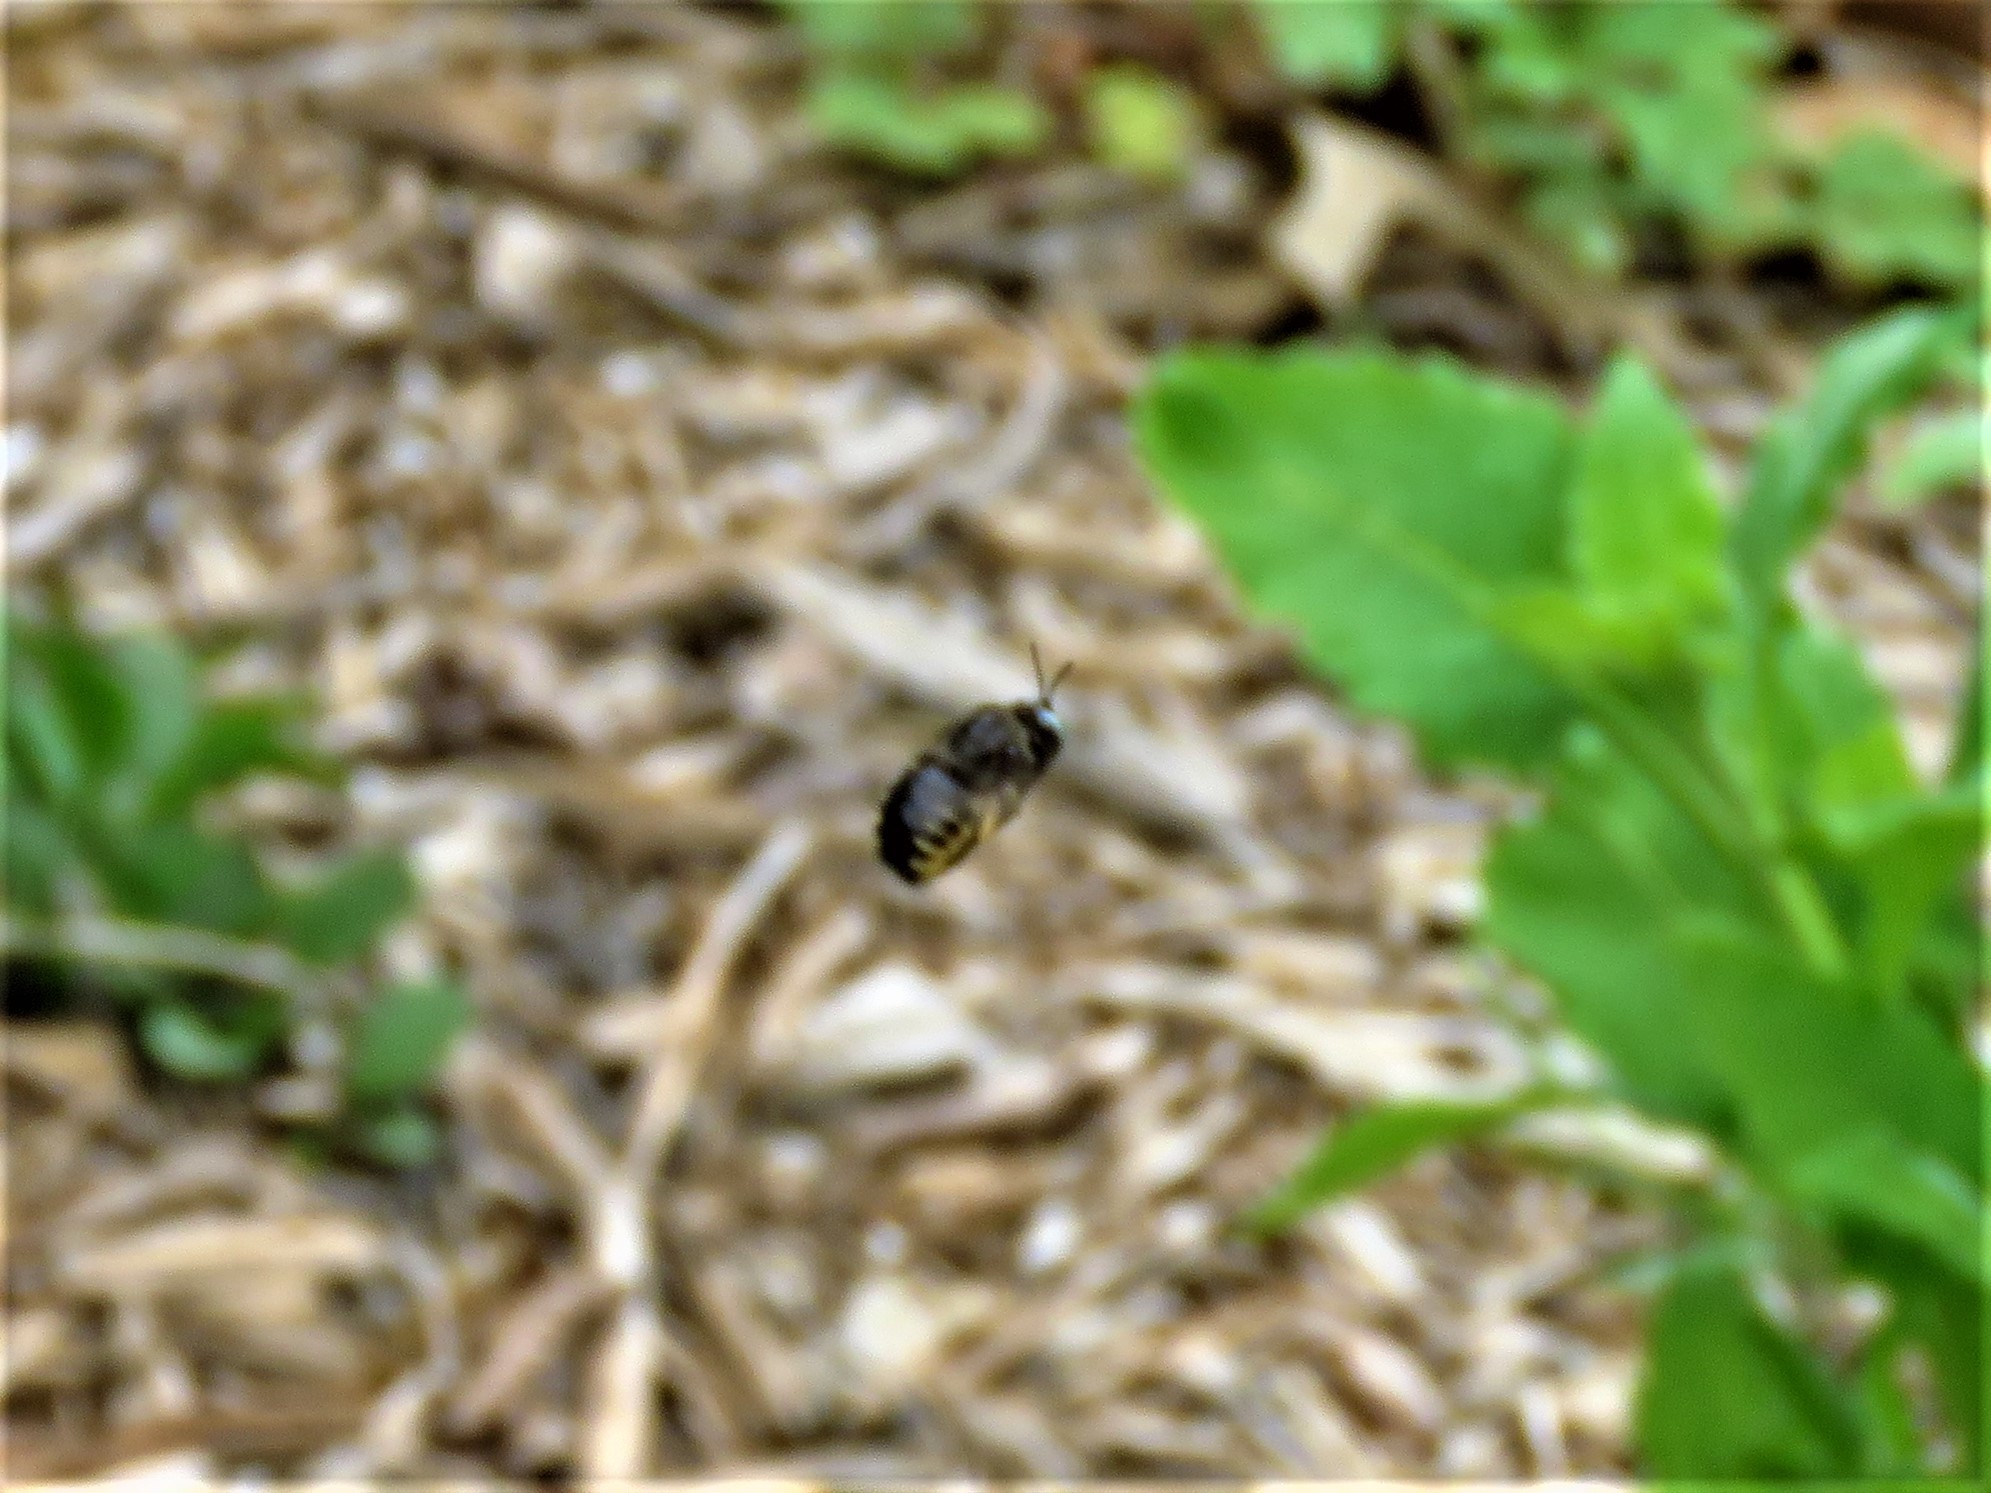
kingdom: Animalia
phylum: Arthropoda
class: Insecta
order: Hymenoptera
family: Apidae
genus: Xylocopa
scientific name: Xylocopa tabaniformis
